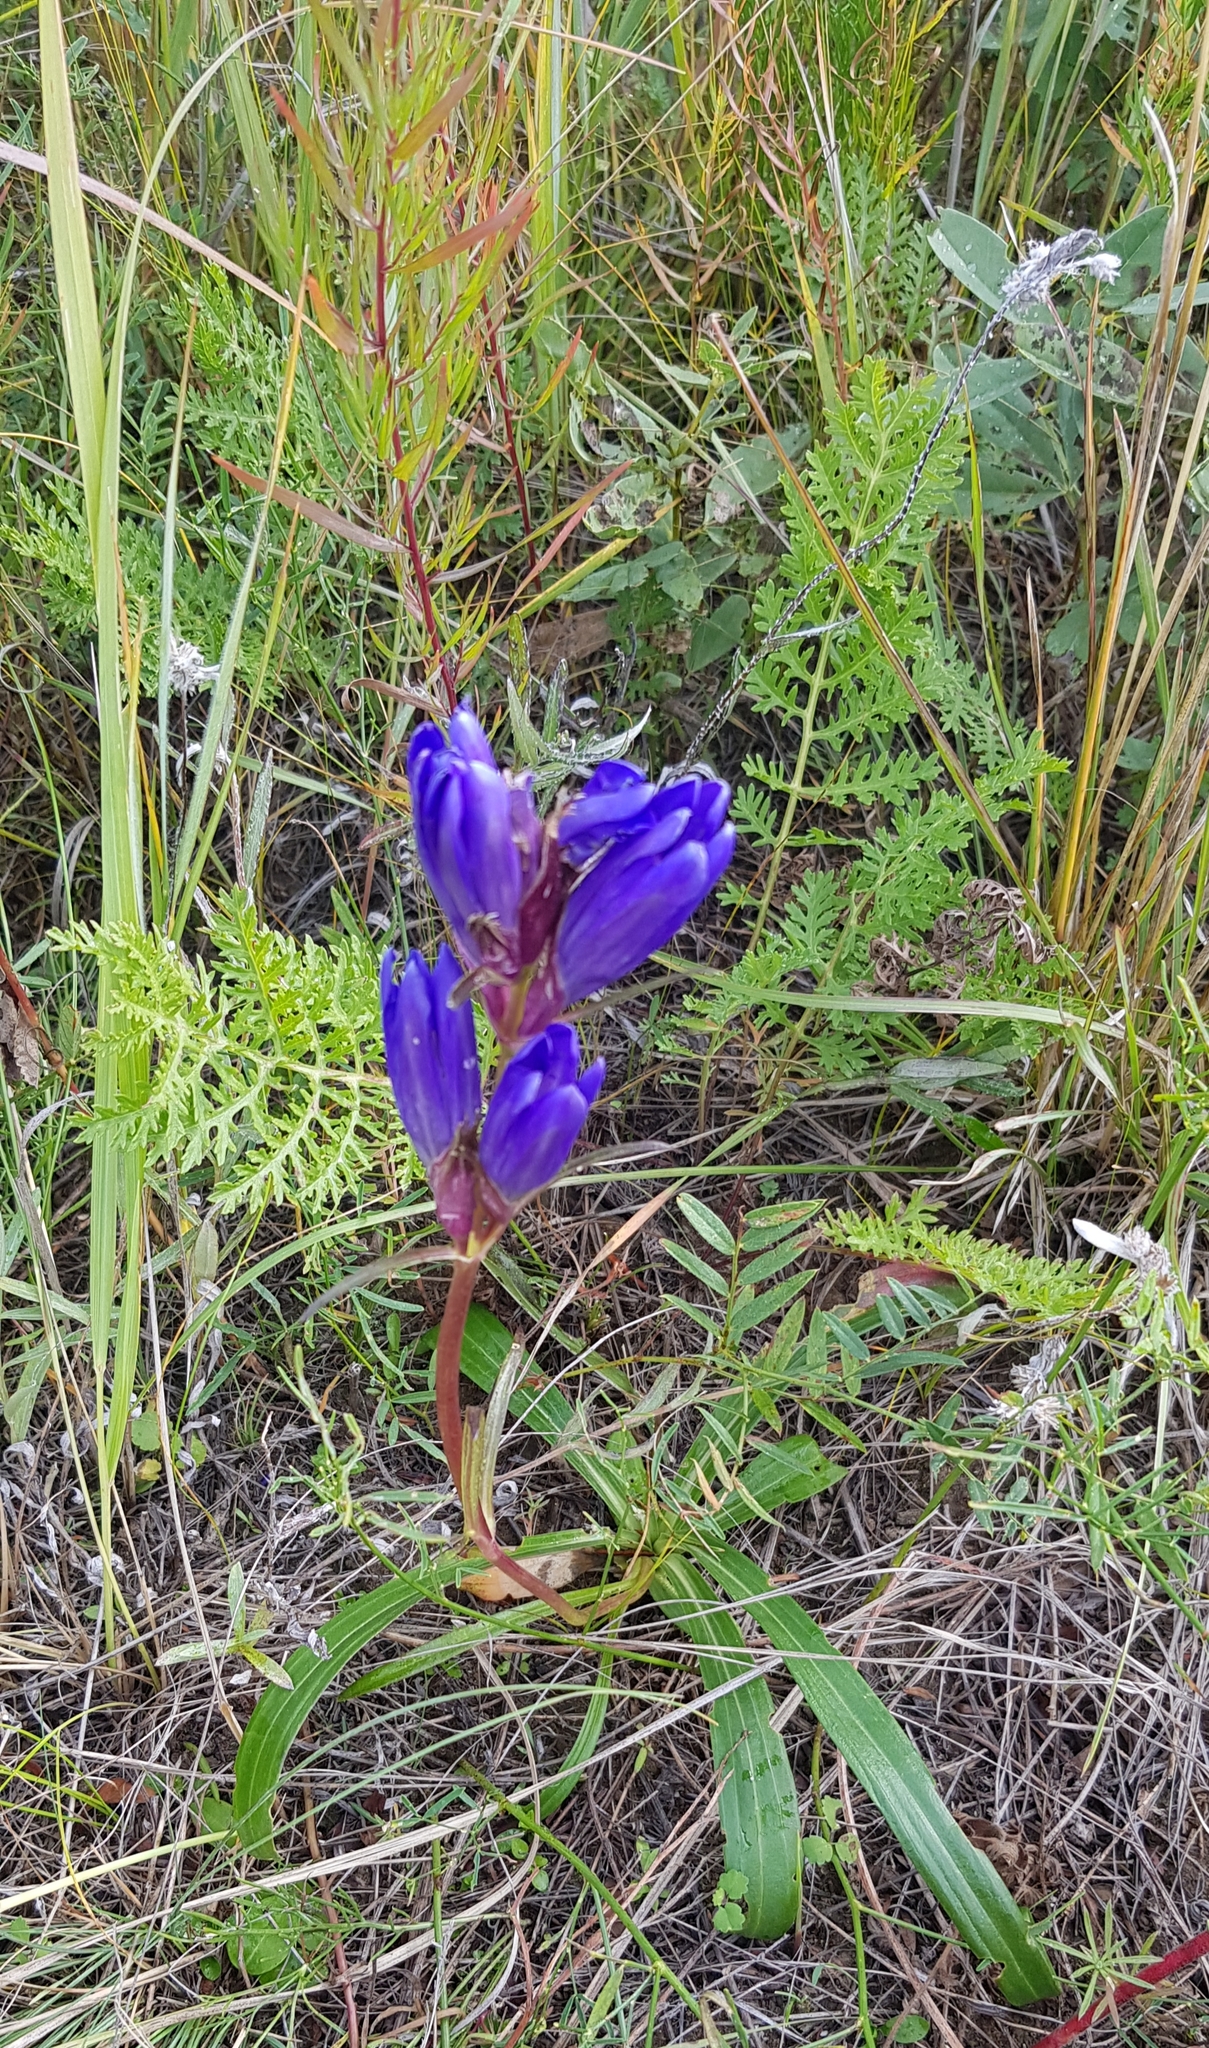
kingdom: Plantae
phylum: Tracheophyta
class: Magnoliopsida
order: Gentianales
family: Gentianaceae
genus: Gentiana
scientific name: Gentiana decumbens
